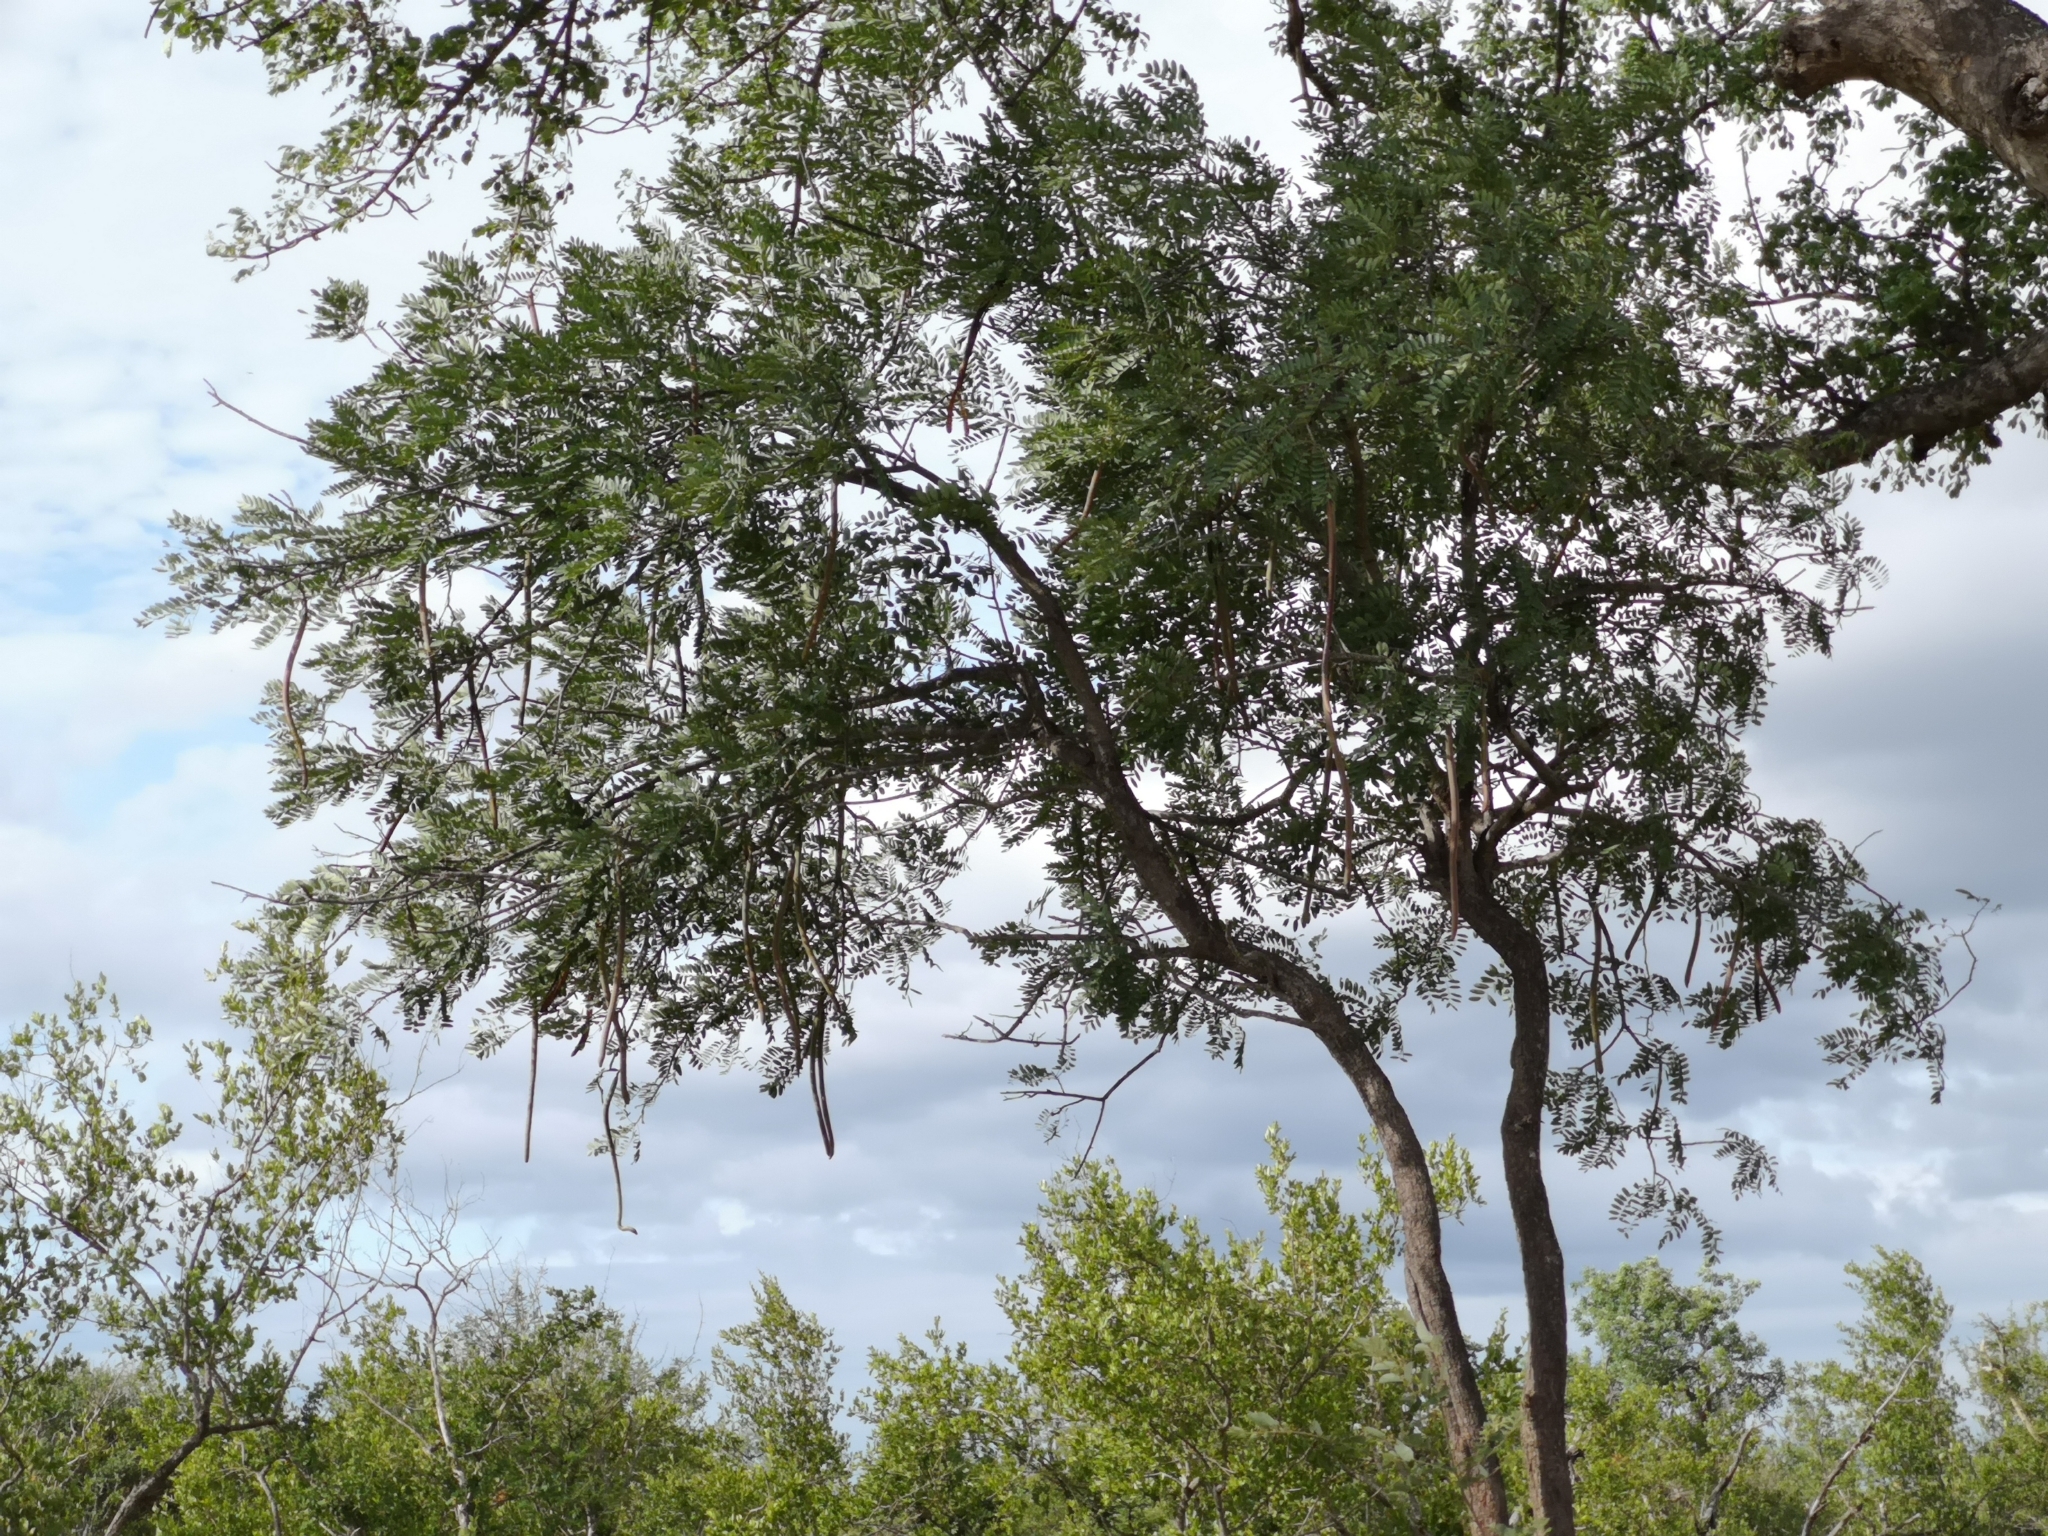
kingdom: Plantae
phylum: Tracheophyta
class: Magnoliopsida
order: Fabales
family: Fabaceae
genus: Cassia
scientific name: Cassia abbreviata
